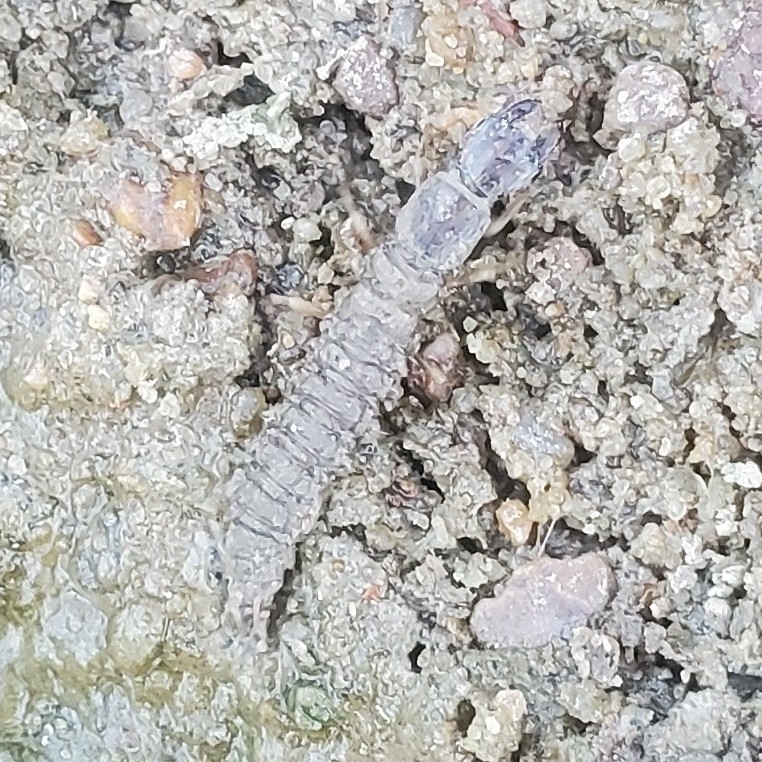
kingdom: Animalia
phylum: Arthropoda
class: Insecta
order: Megaloptera
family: Corydalidae
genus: Corydalus
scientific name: Corydalus cornutus
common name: Dobsonfly
